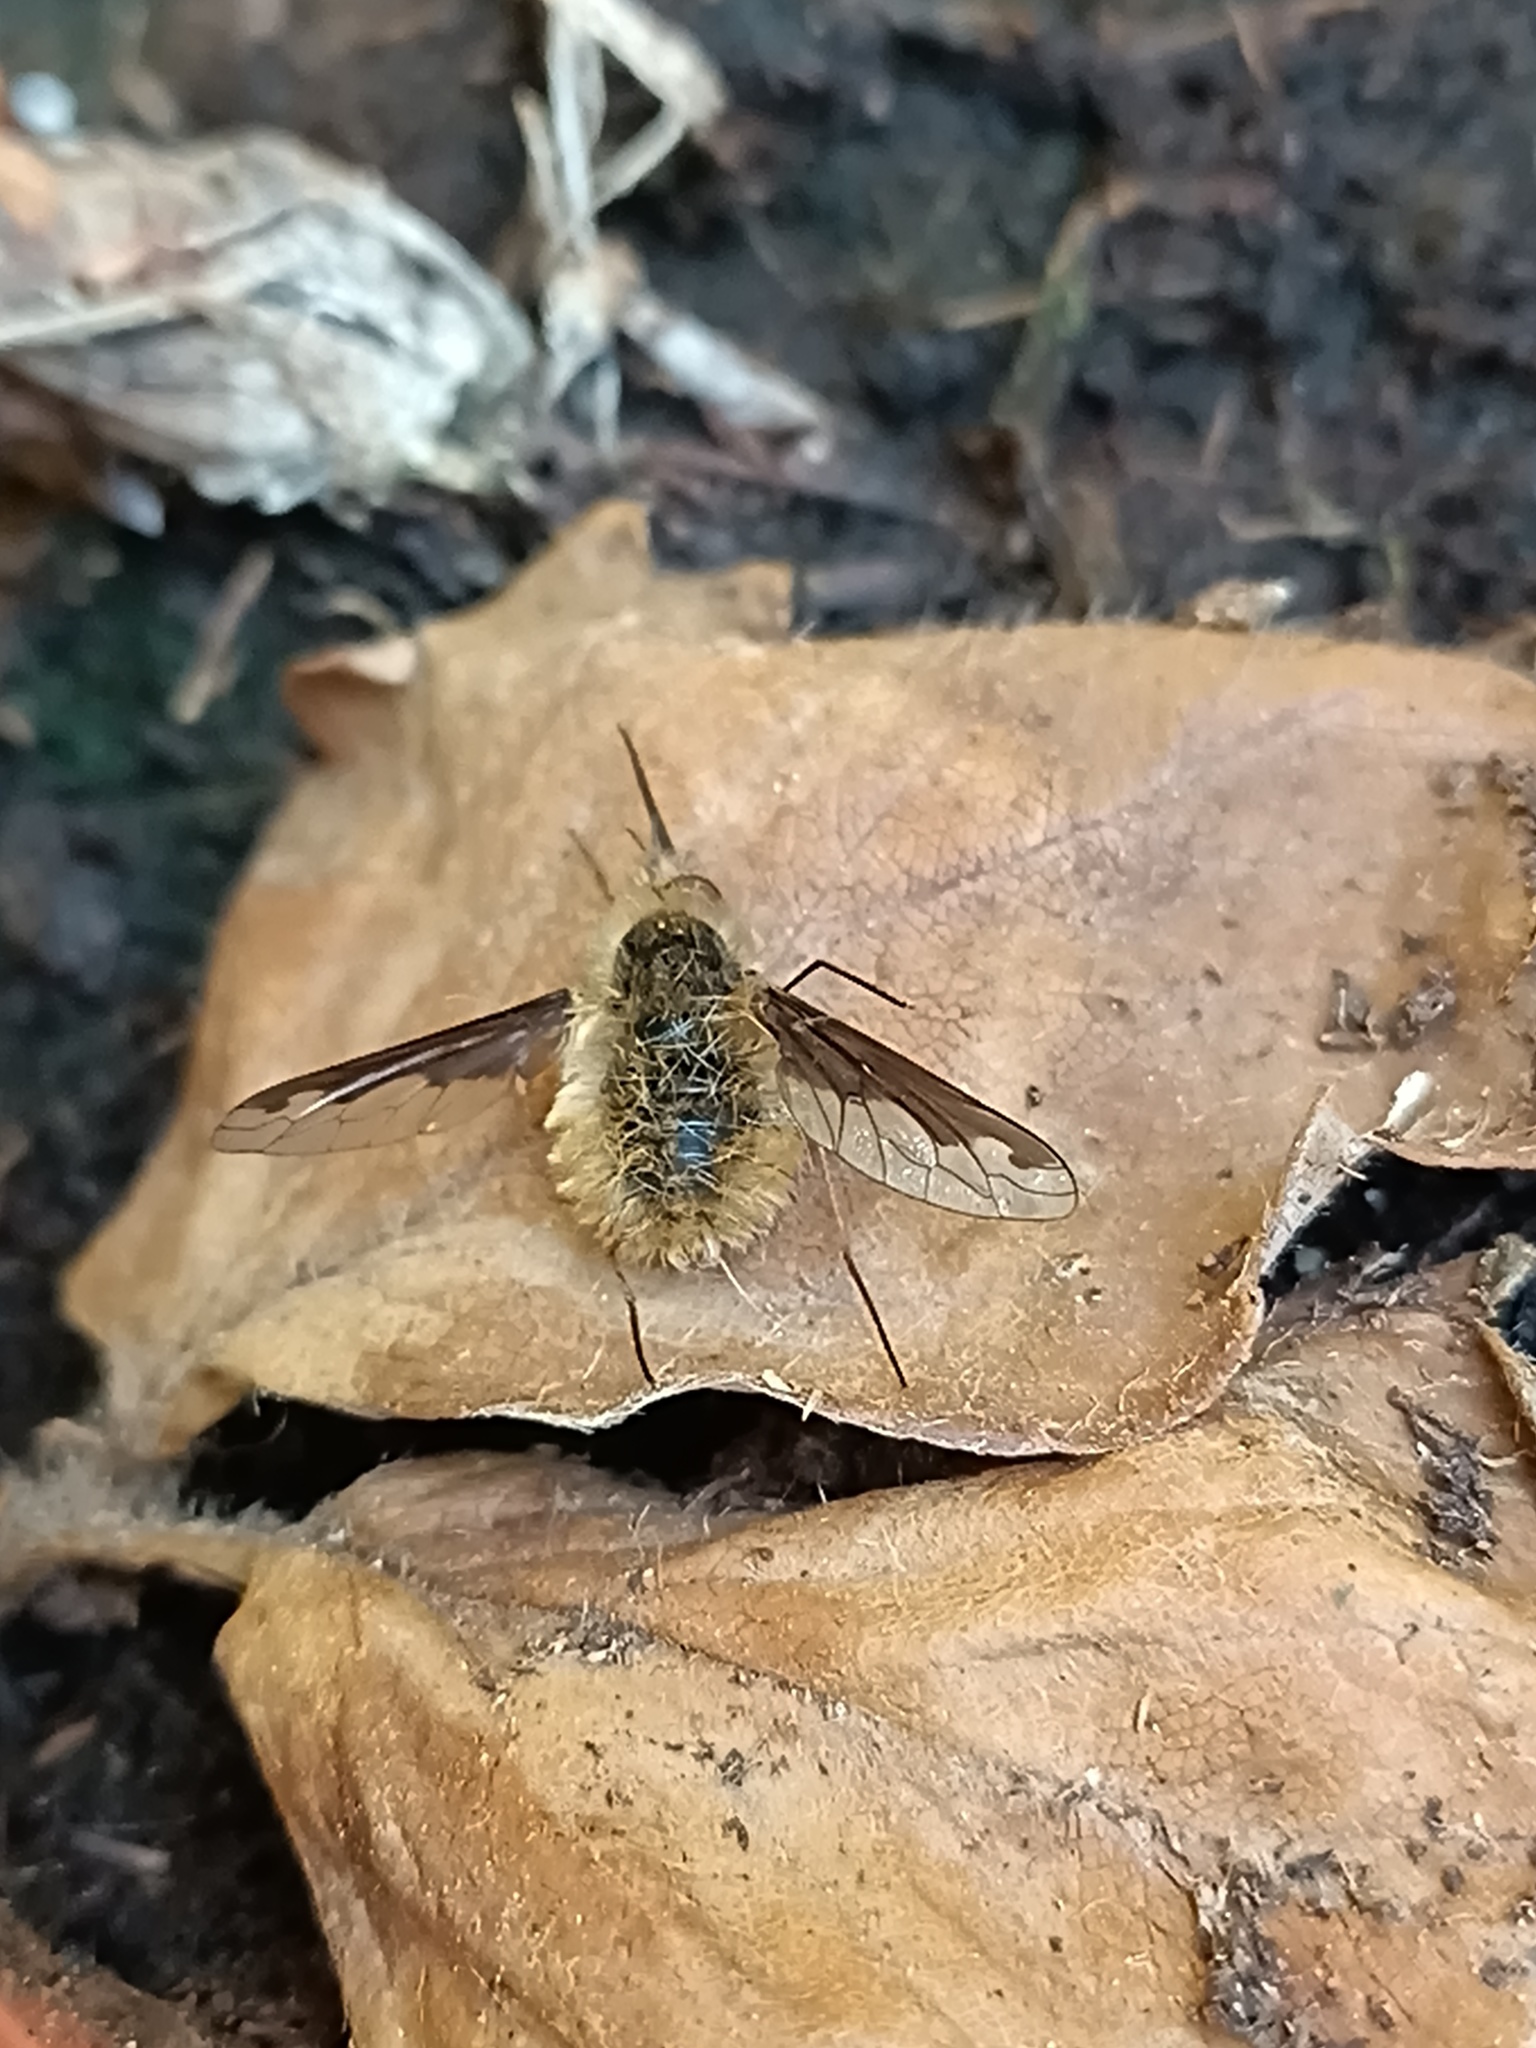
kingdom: Animalia
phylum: Arthropoda
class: Insecta
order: Diptera
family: Bombyliidae
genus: Bombylius
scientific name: Bombylius major
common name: Bee fly
